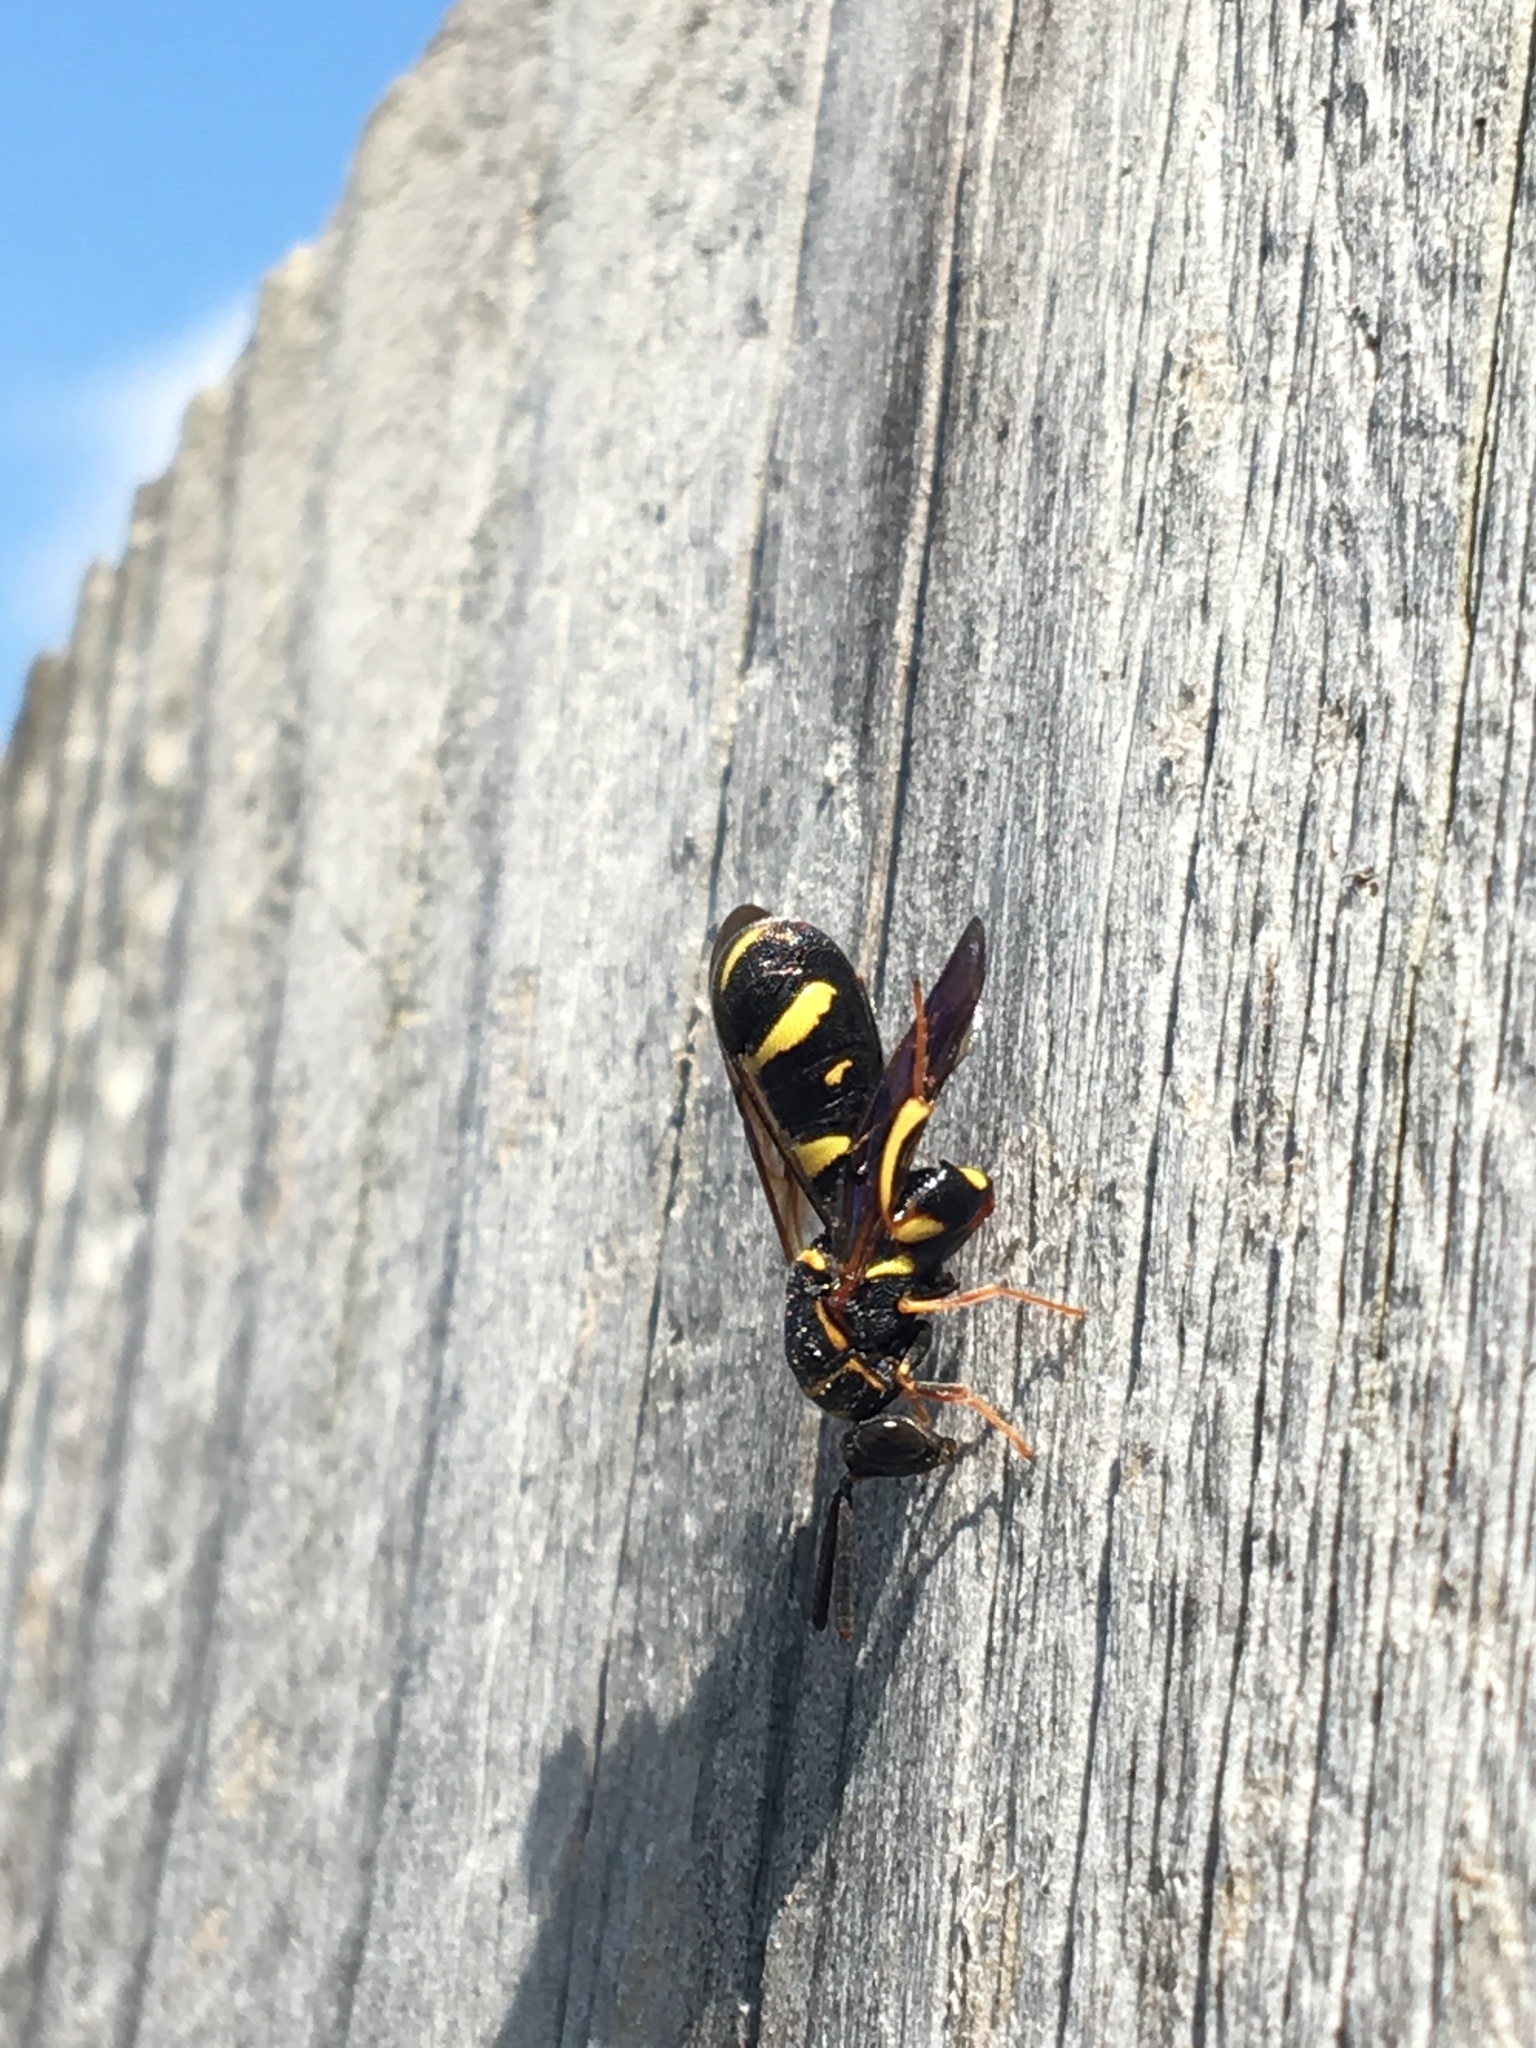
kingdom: Animalia
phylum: Arthropoda
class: Insecta
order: Hymenoptera
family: Leucospidae
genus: Leucospis
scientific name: Leucospis affinis
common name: Wasp
